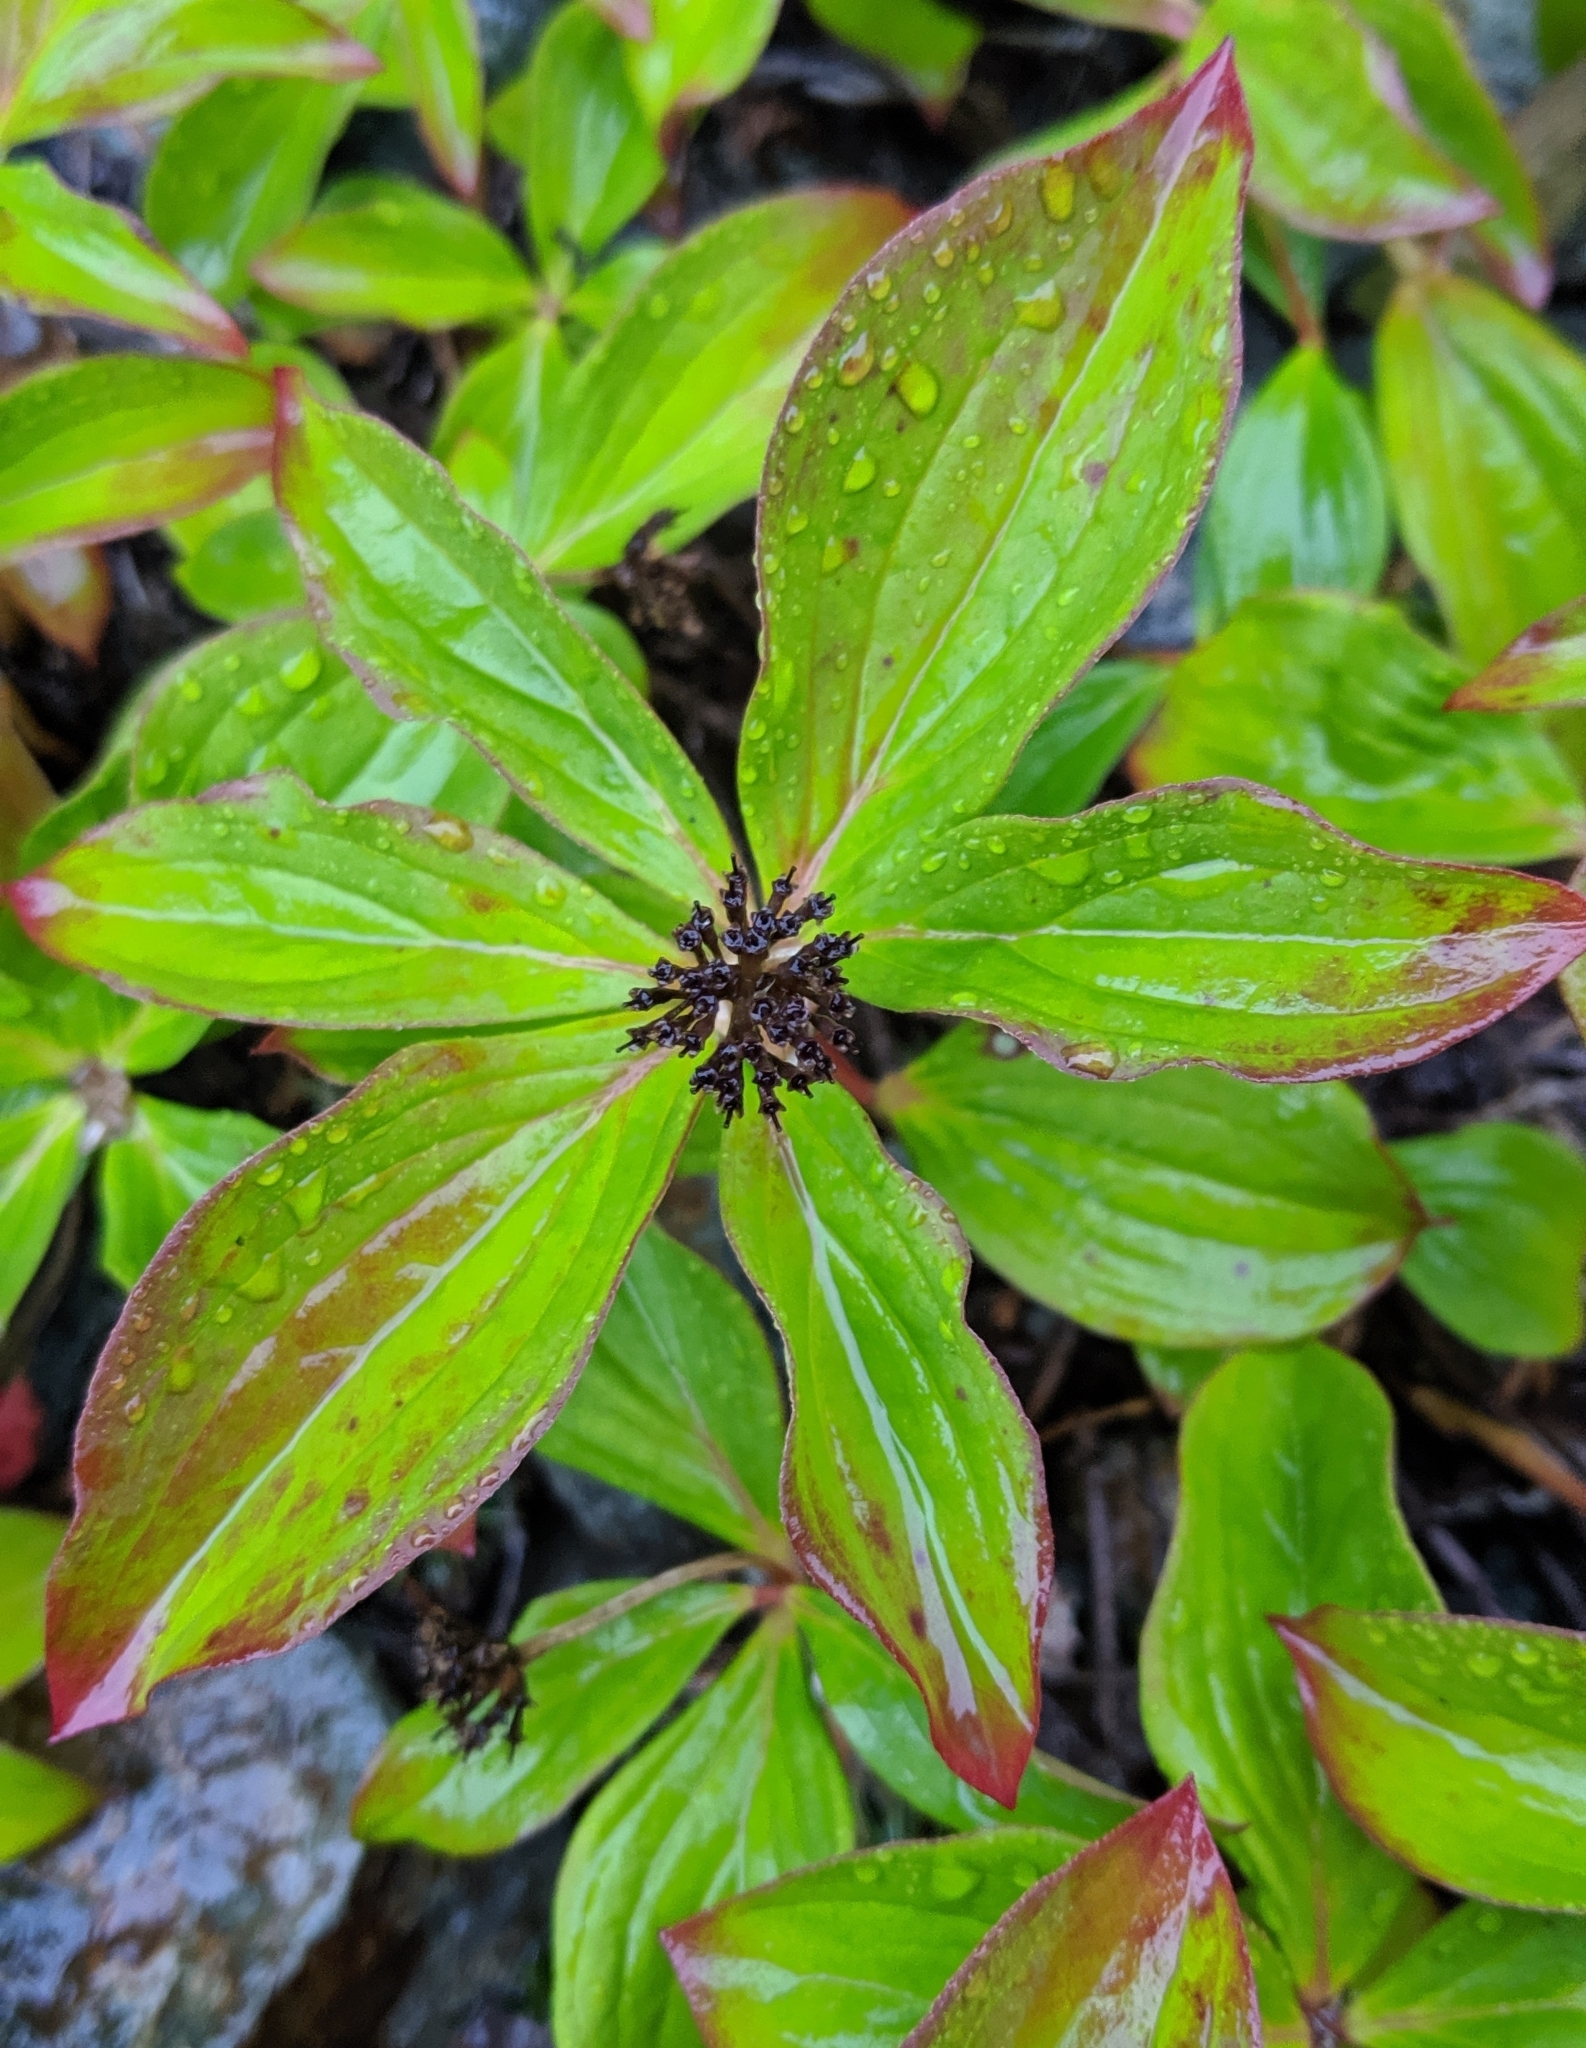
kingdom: Plantae
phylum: Tracheophyta
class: Magnoliopsida
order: Cornales
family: Cornaceae
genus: Cornus
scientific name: Cornus unalaschkensis
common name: Alaska bunchberry
